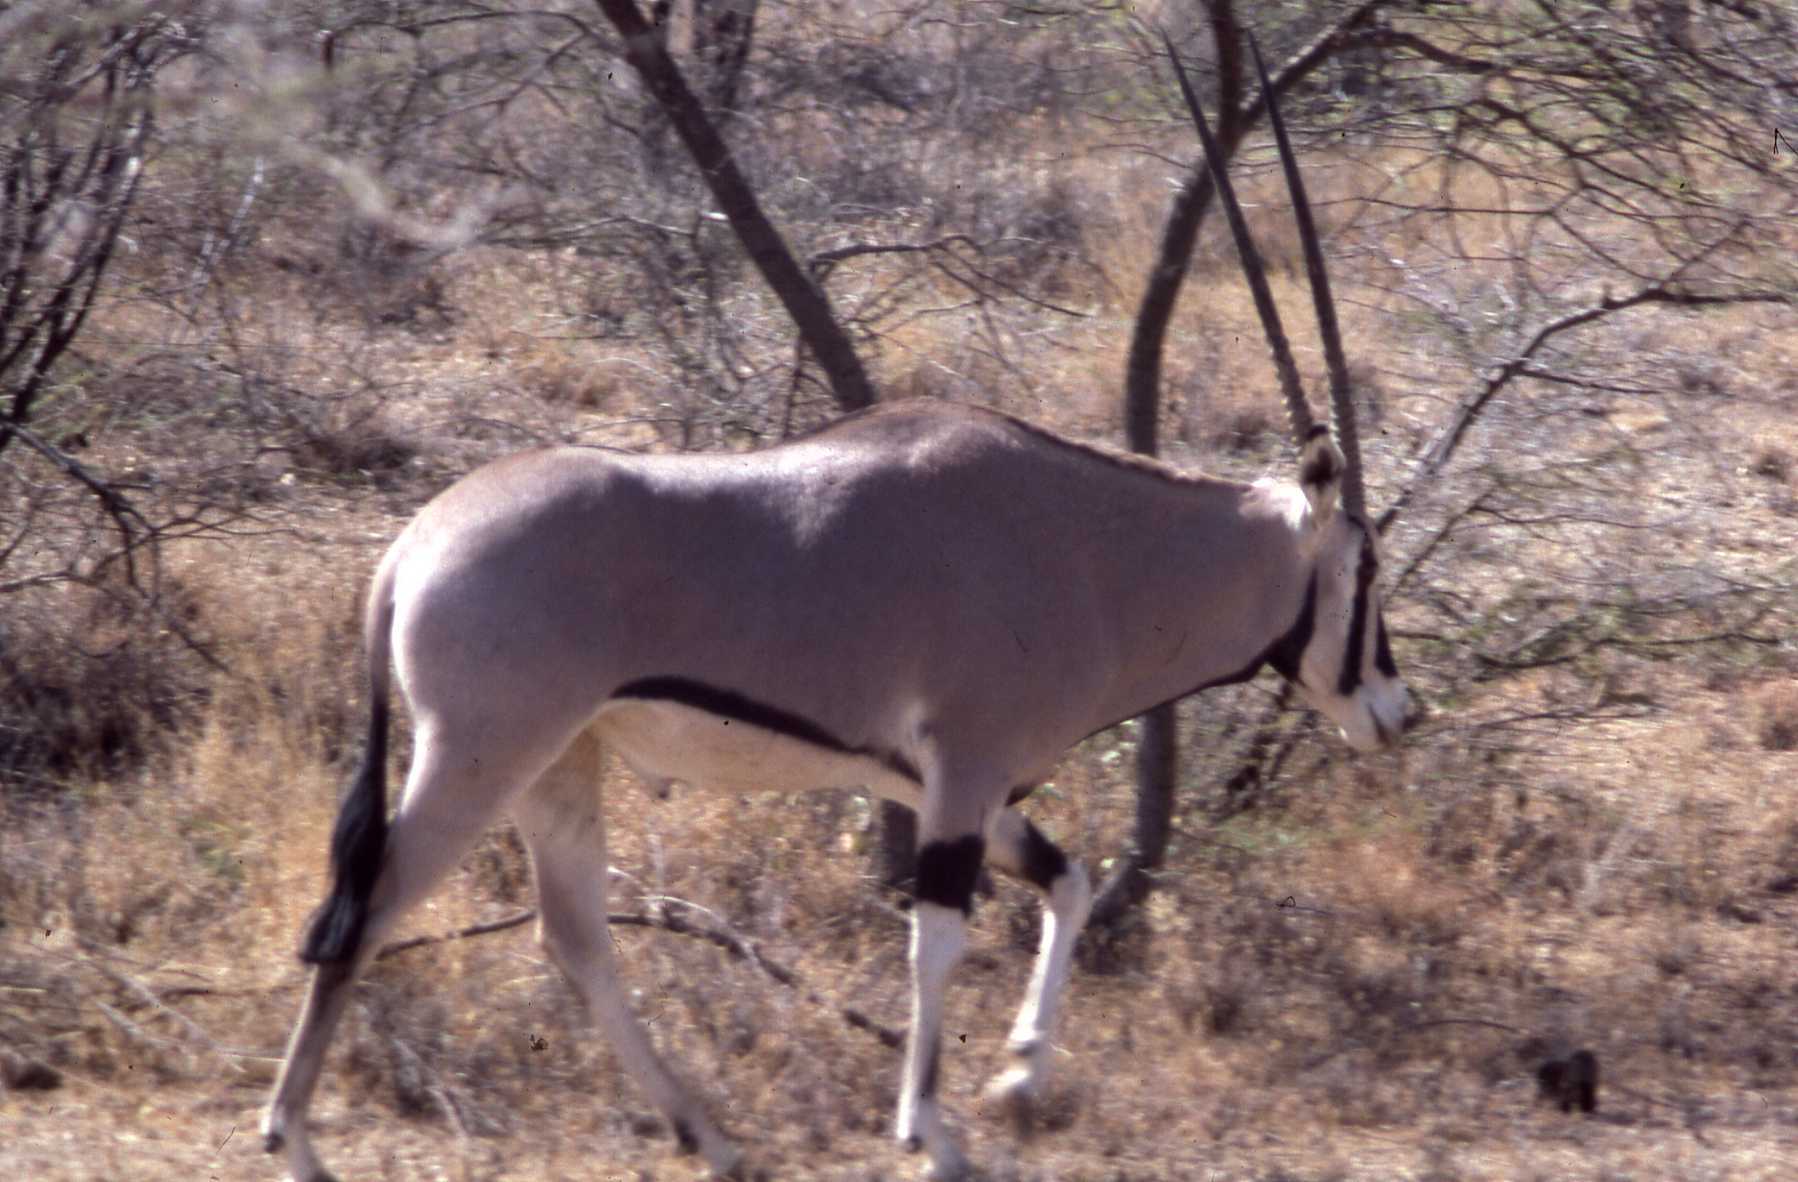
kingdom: Animalia
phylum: Chordata
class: Mammalia
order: Artiodactyla
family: Bovidae
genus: Oryx
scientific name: Oryx beisa
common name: Beisa
